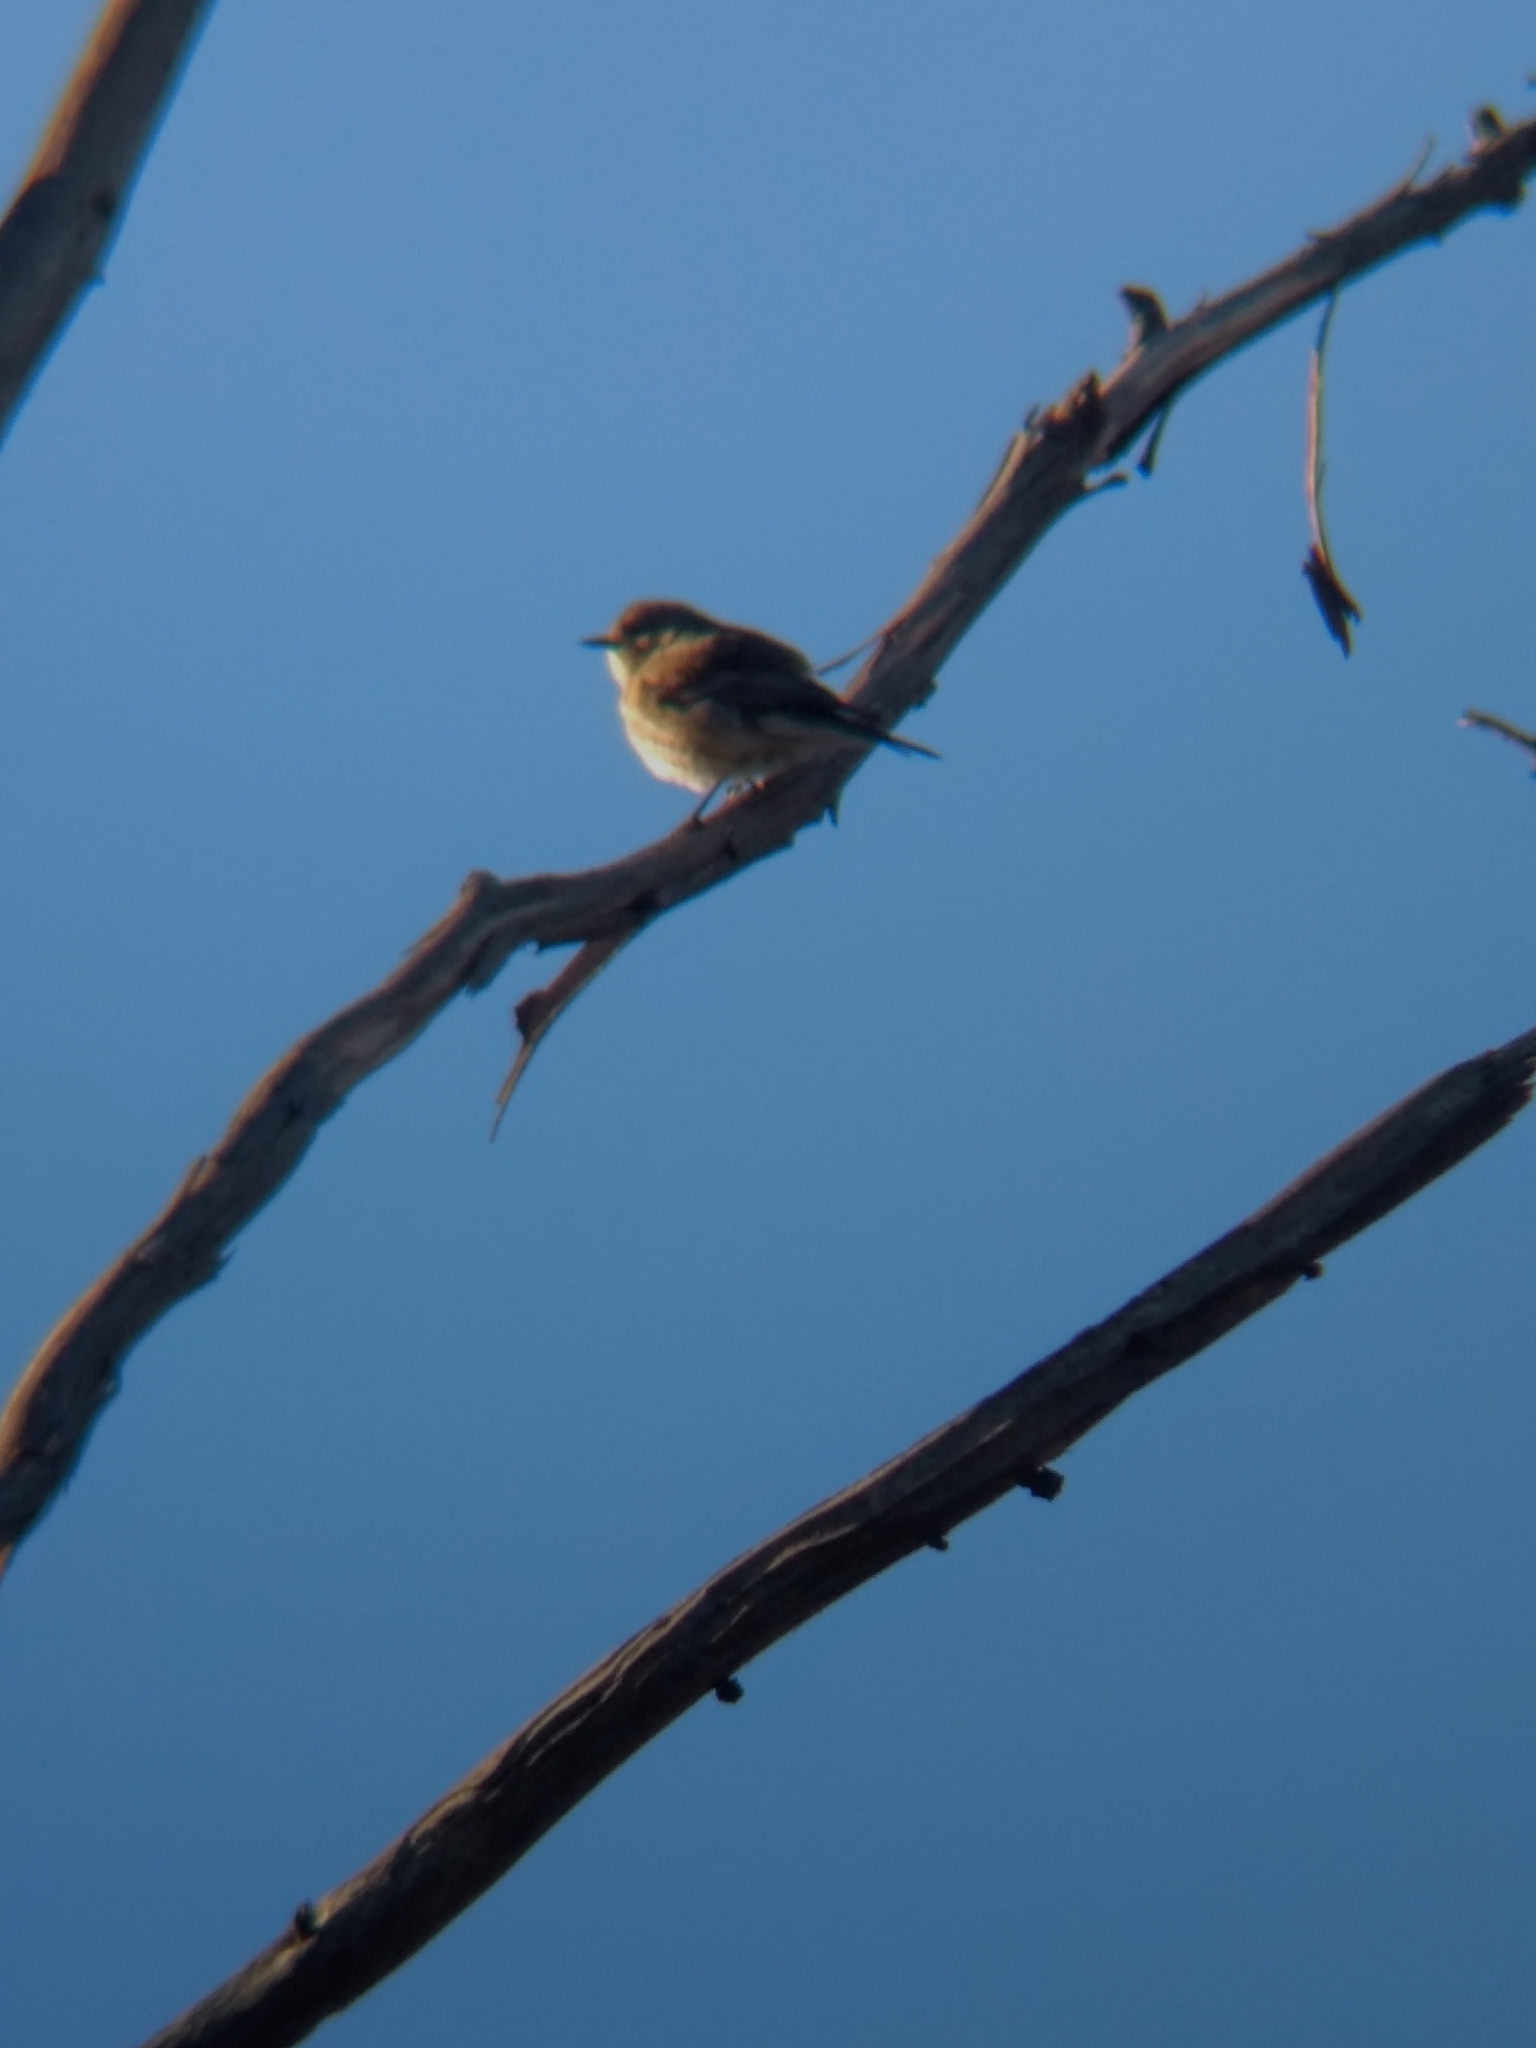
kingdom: Animalia
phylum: Chordata
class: Aves
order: Passeriformes
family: Parulidae
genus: Setophaga
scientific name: Setophaga coronata
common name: Myrtle warbler
